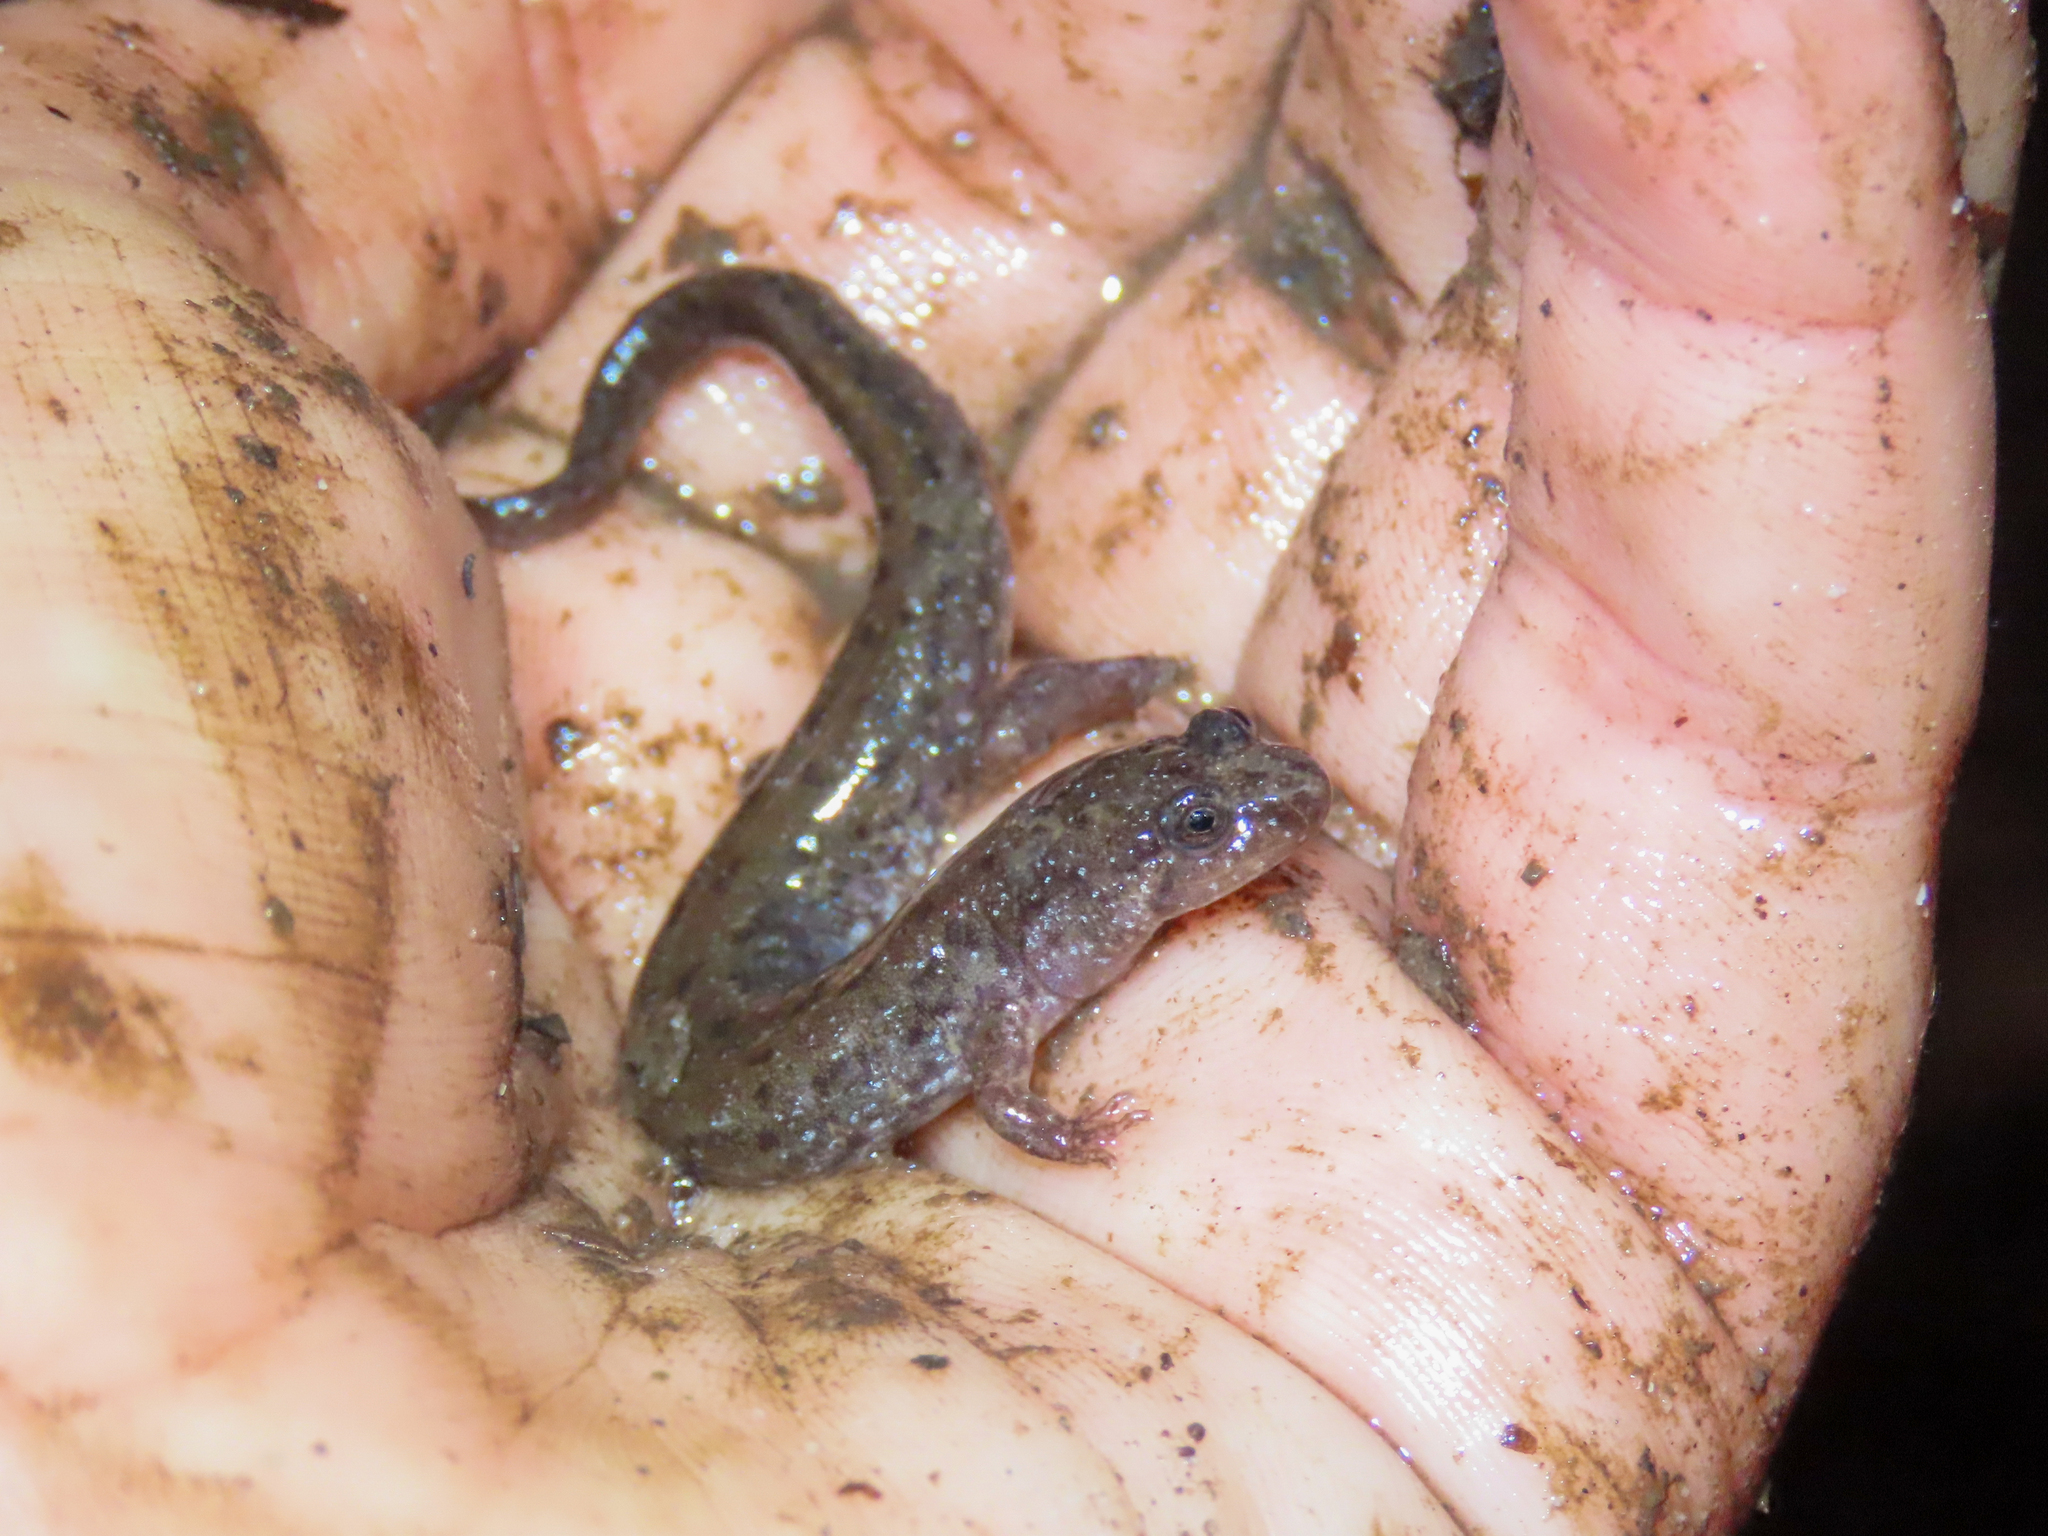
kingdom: Animalia
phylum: Chordata
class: Amphibia
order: Caudata
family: Plethodontidae
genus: Desmognathus
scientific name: Desmognathus fuscus
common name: Northern dusky salamander
